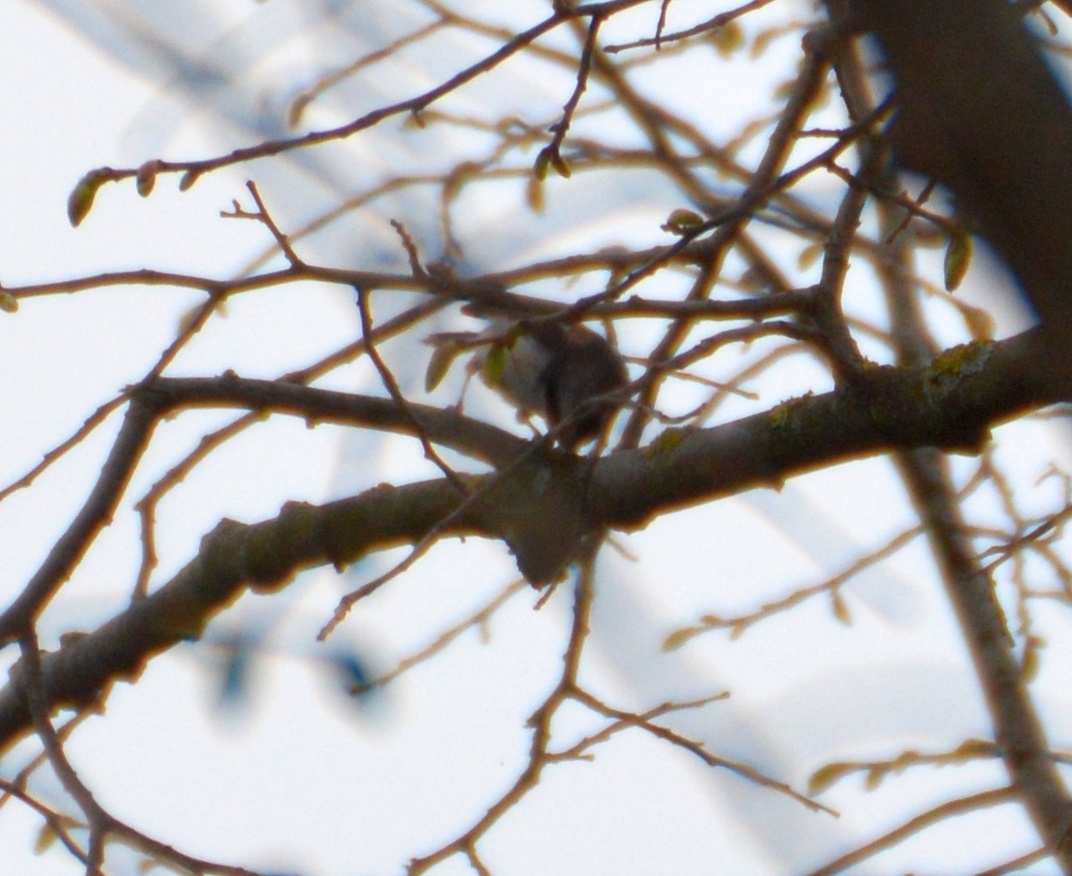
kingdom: Animalia
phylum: Chordata
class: Aves
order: Passeriformes
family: Aegithalidae
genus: Aegithalos
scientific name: Aegithalos caudatus
